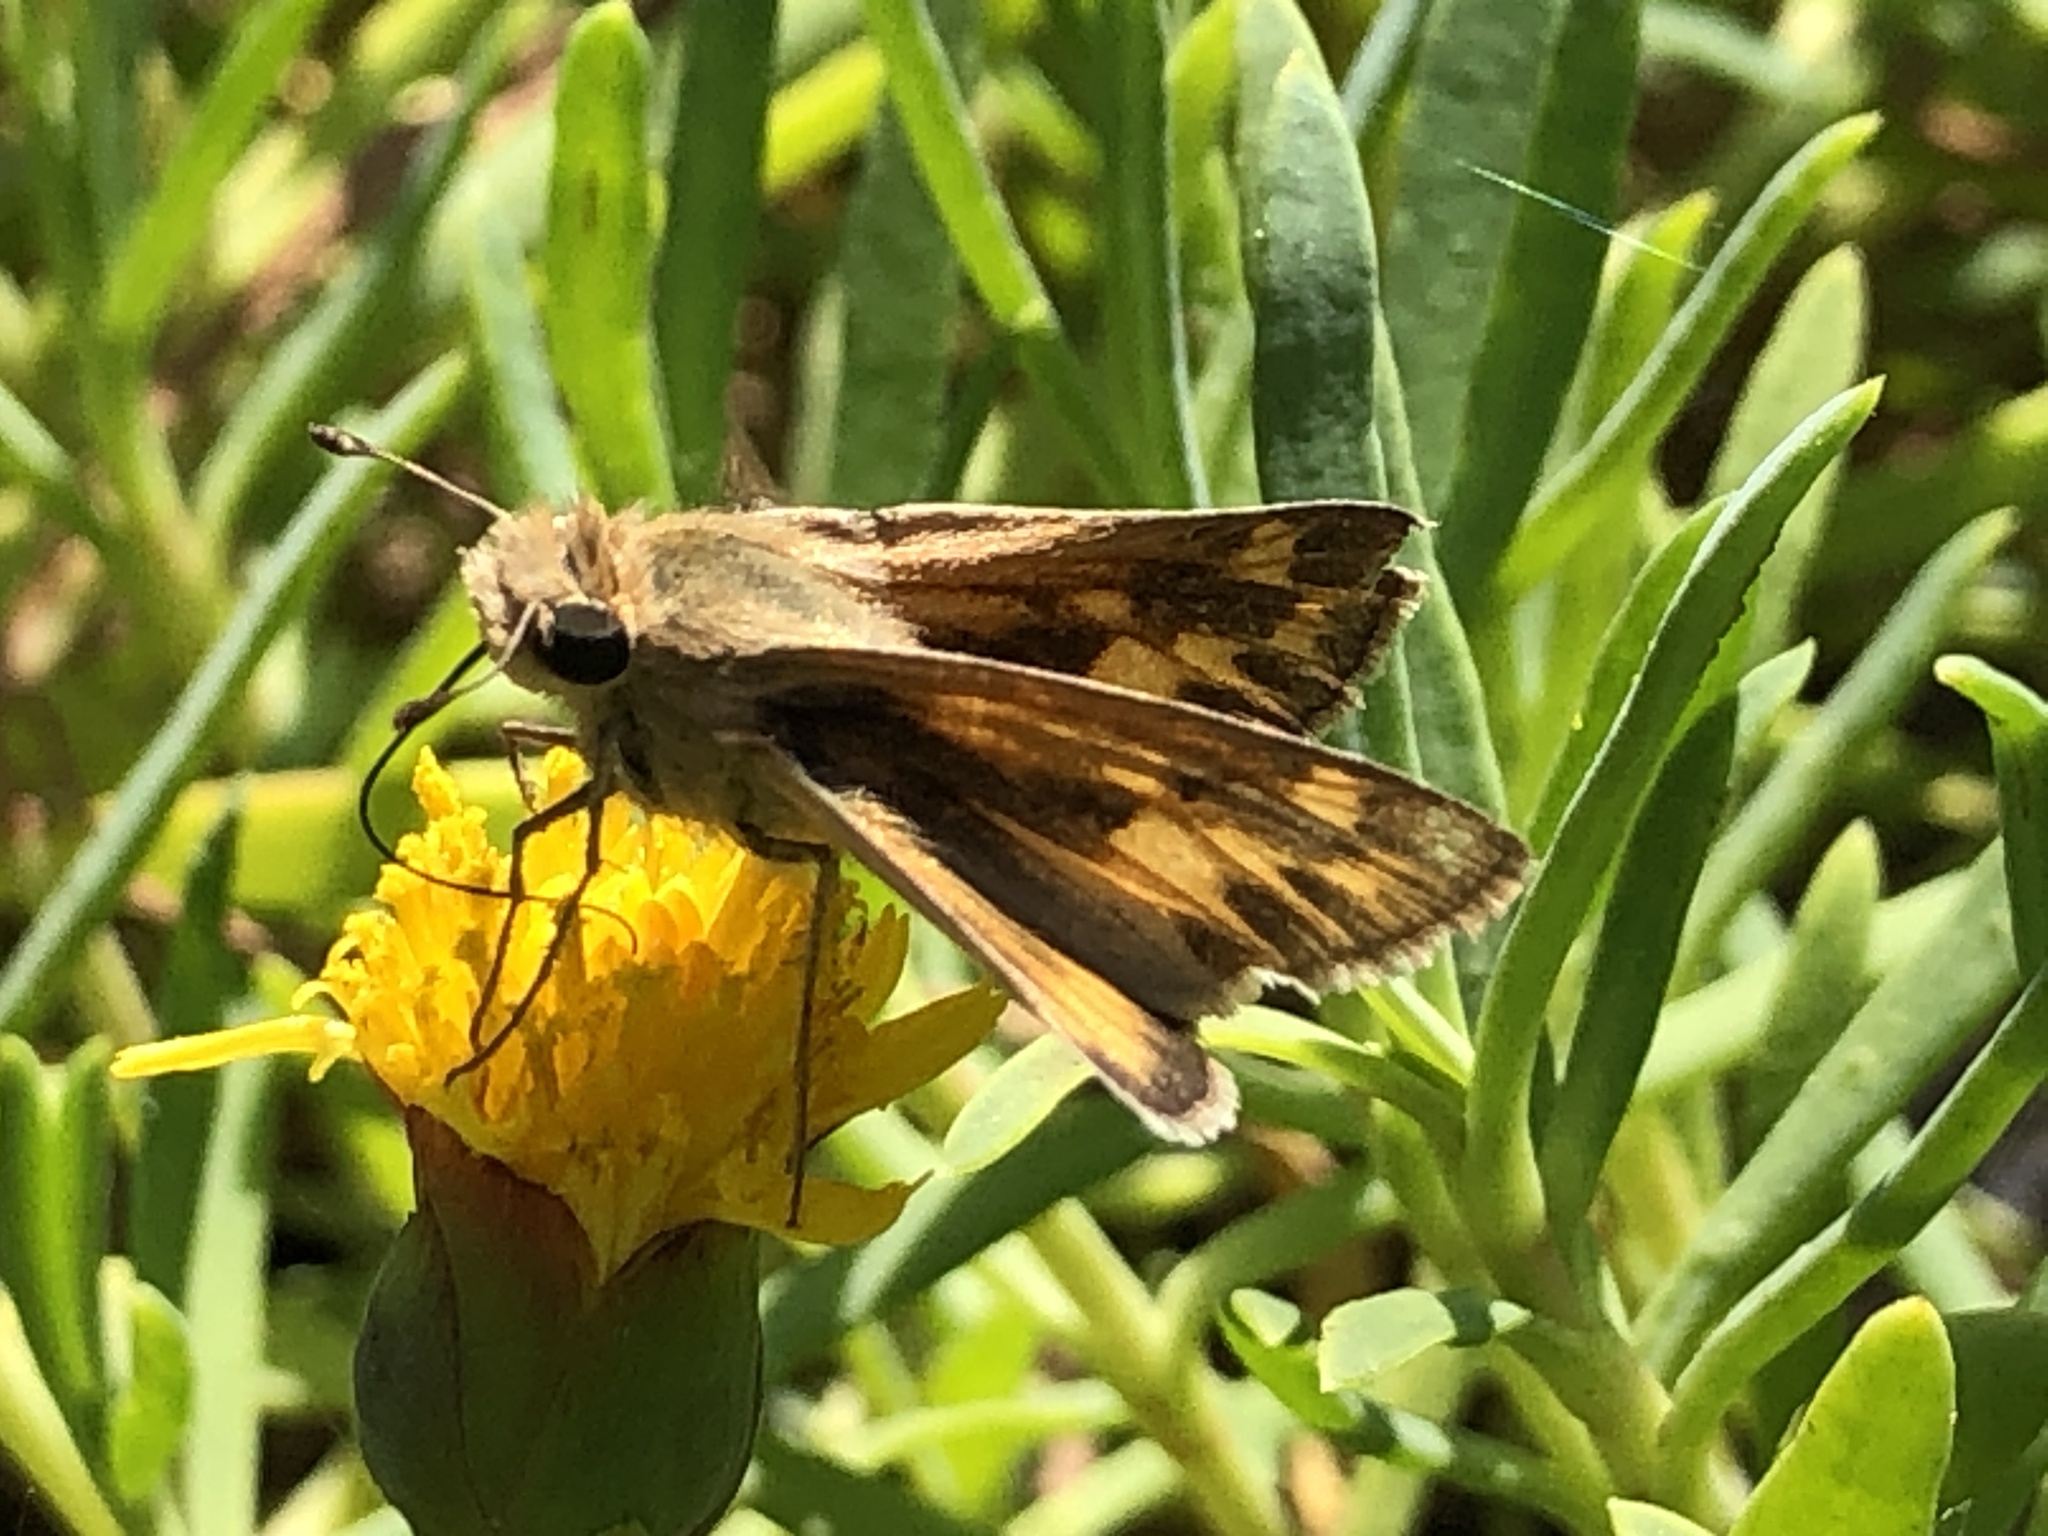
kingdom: Animalia
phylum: Arthropoda
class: Insecta
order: Lepidoptera
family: Hesperiidae
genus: Hylephila
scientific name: Hylephila phyleus
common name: Fiery skipper
